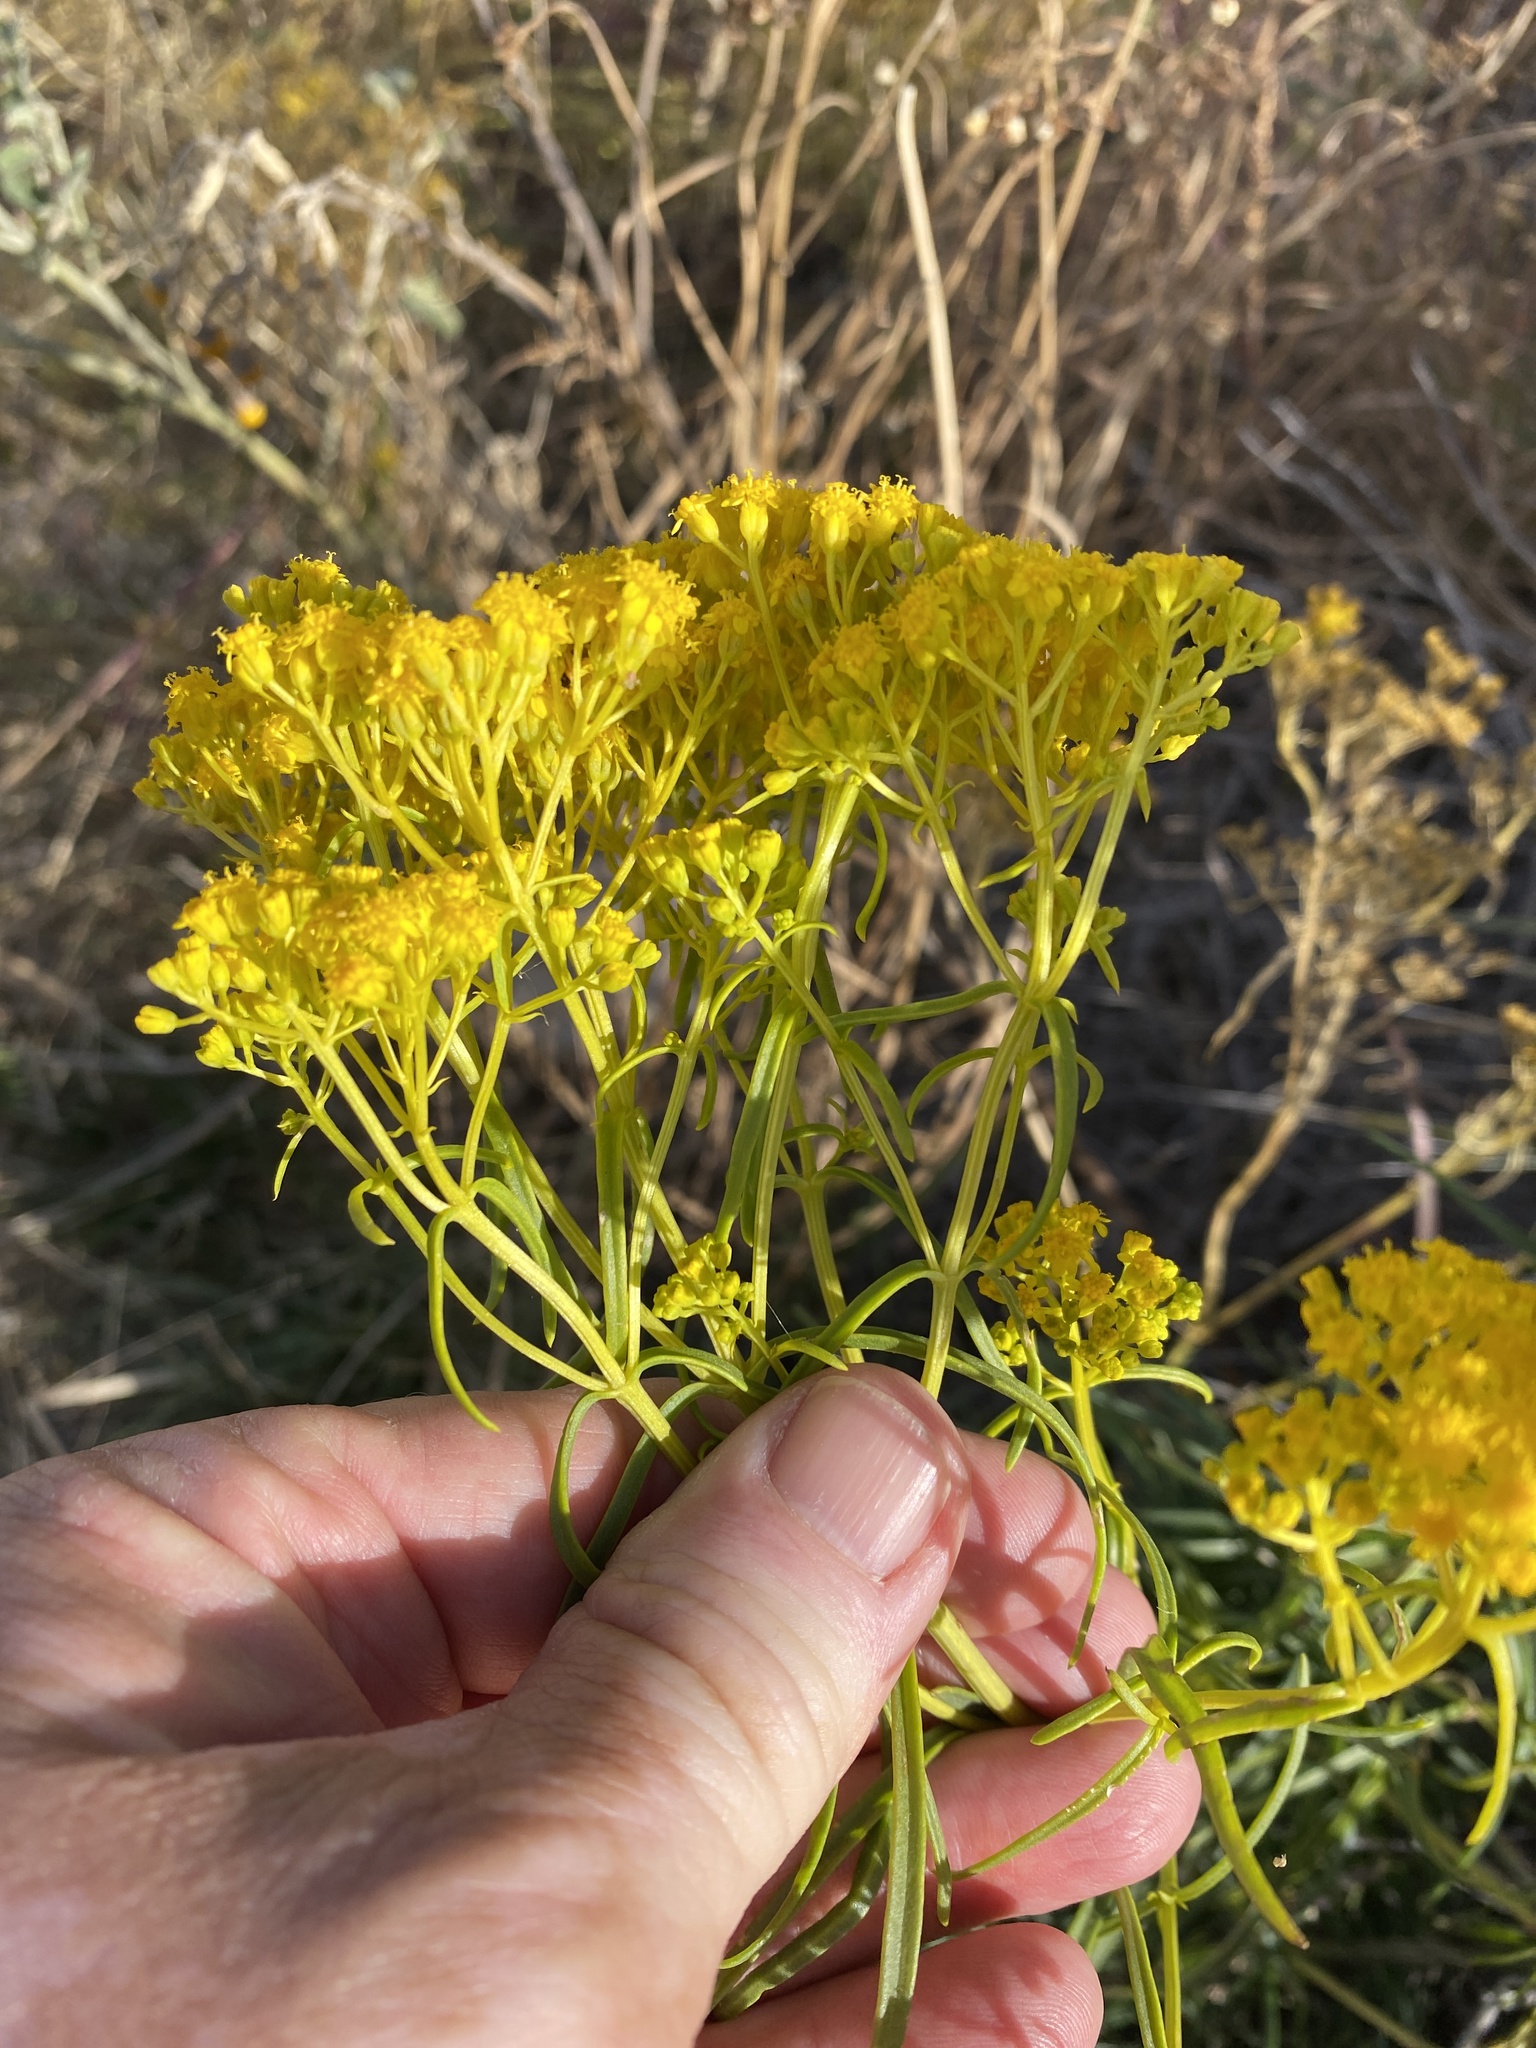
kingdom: Plantae
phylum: Tracheophyta
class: Magnoliopsida
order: Asterales
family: Asteraceae
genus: Sartwellia
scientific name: Sartwellia flaveriae
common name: Sartwellia
